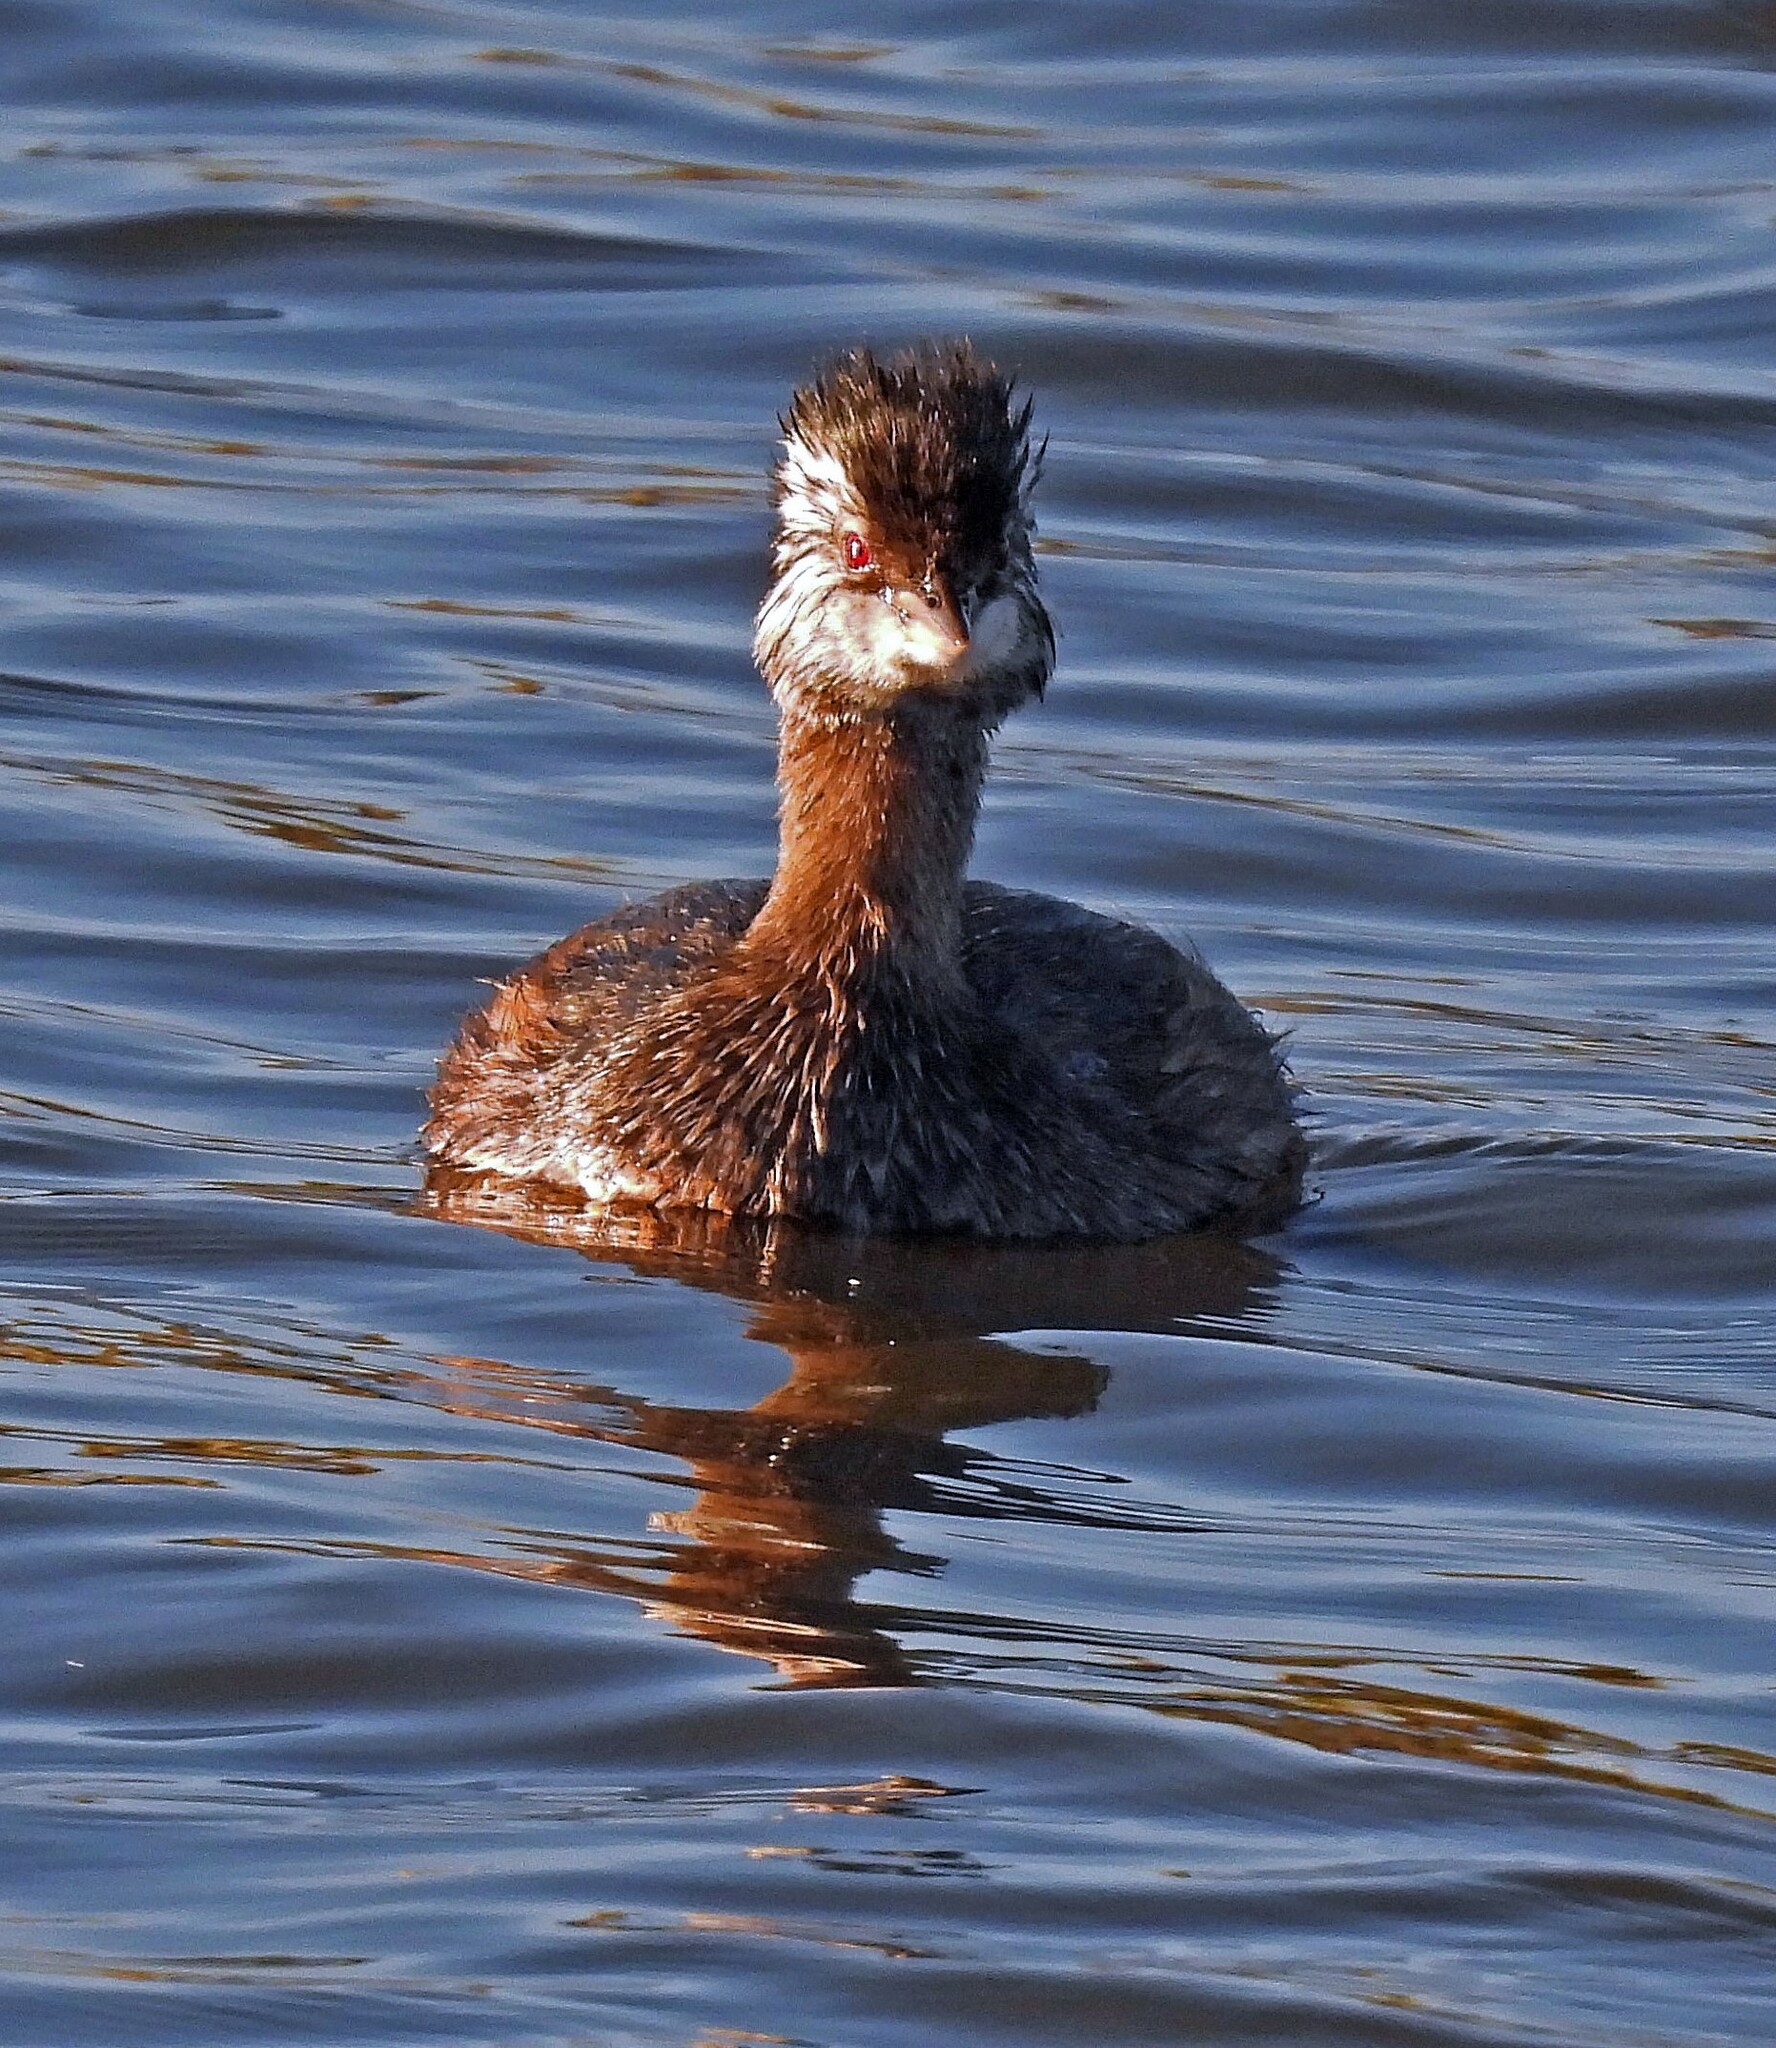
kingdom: Animalia
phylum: Chordata
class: Aves
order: Podicipediformes
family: Podicipedidae
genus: Rollandia
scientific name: Rollandia rolland
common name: White-tufted grebe
